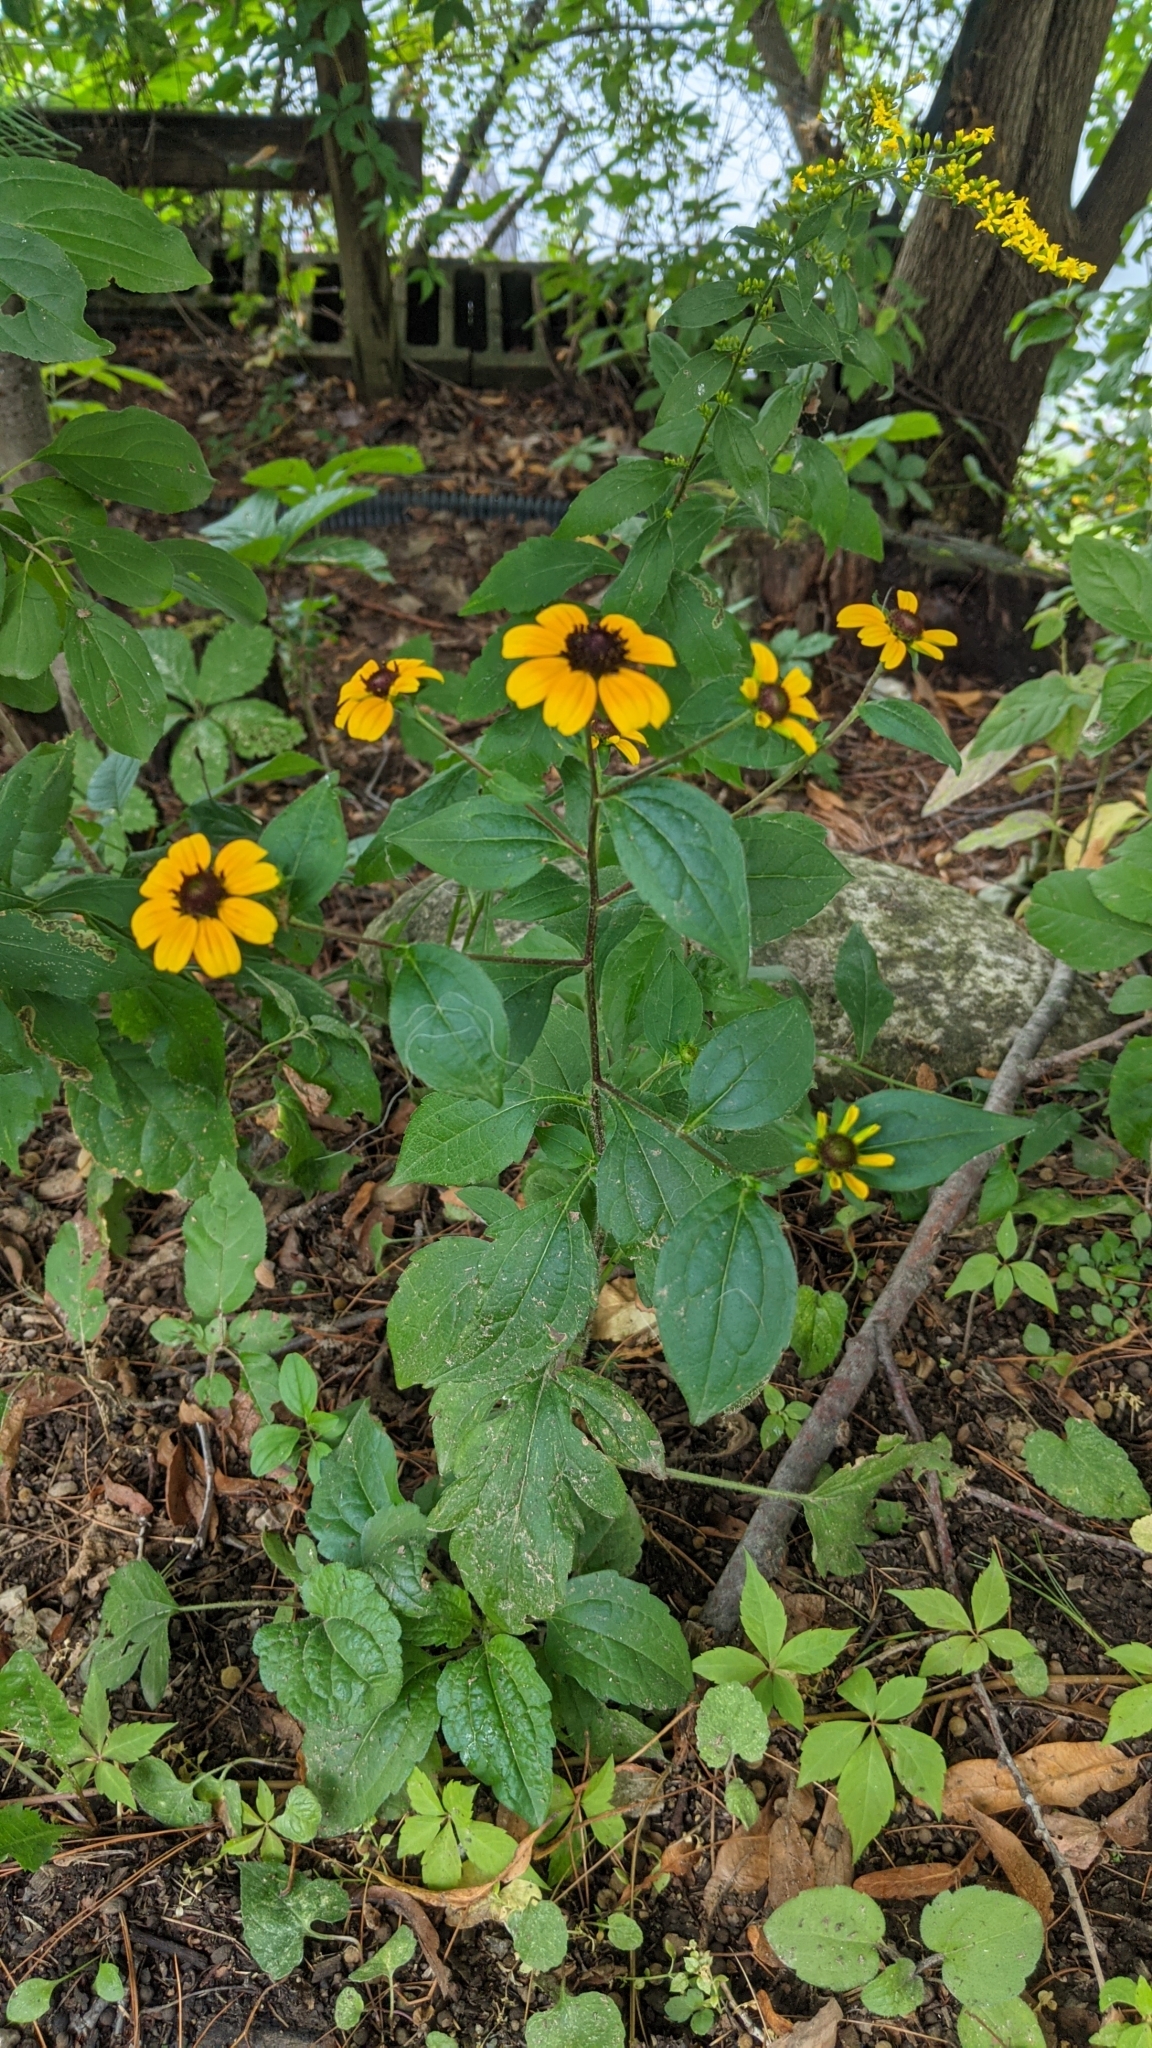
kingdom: Plantae
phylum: Tracheophyta
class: Magnoliopsida
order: Asterales
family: Asteraceae
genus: Rudbeckia
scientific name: Rudbeckia triloba
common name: Thin-leaved coneflower
